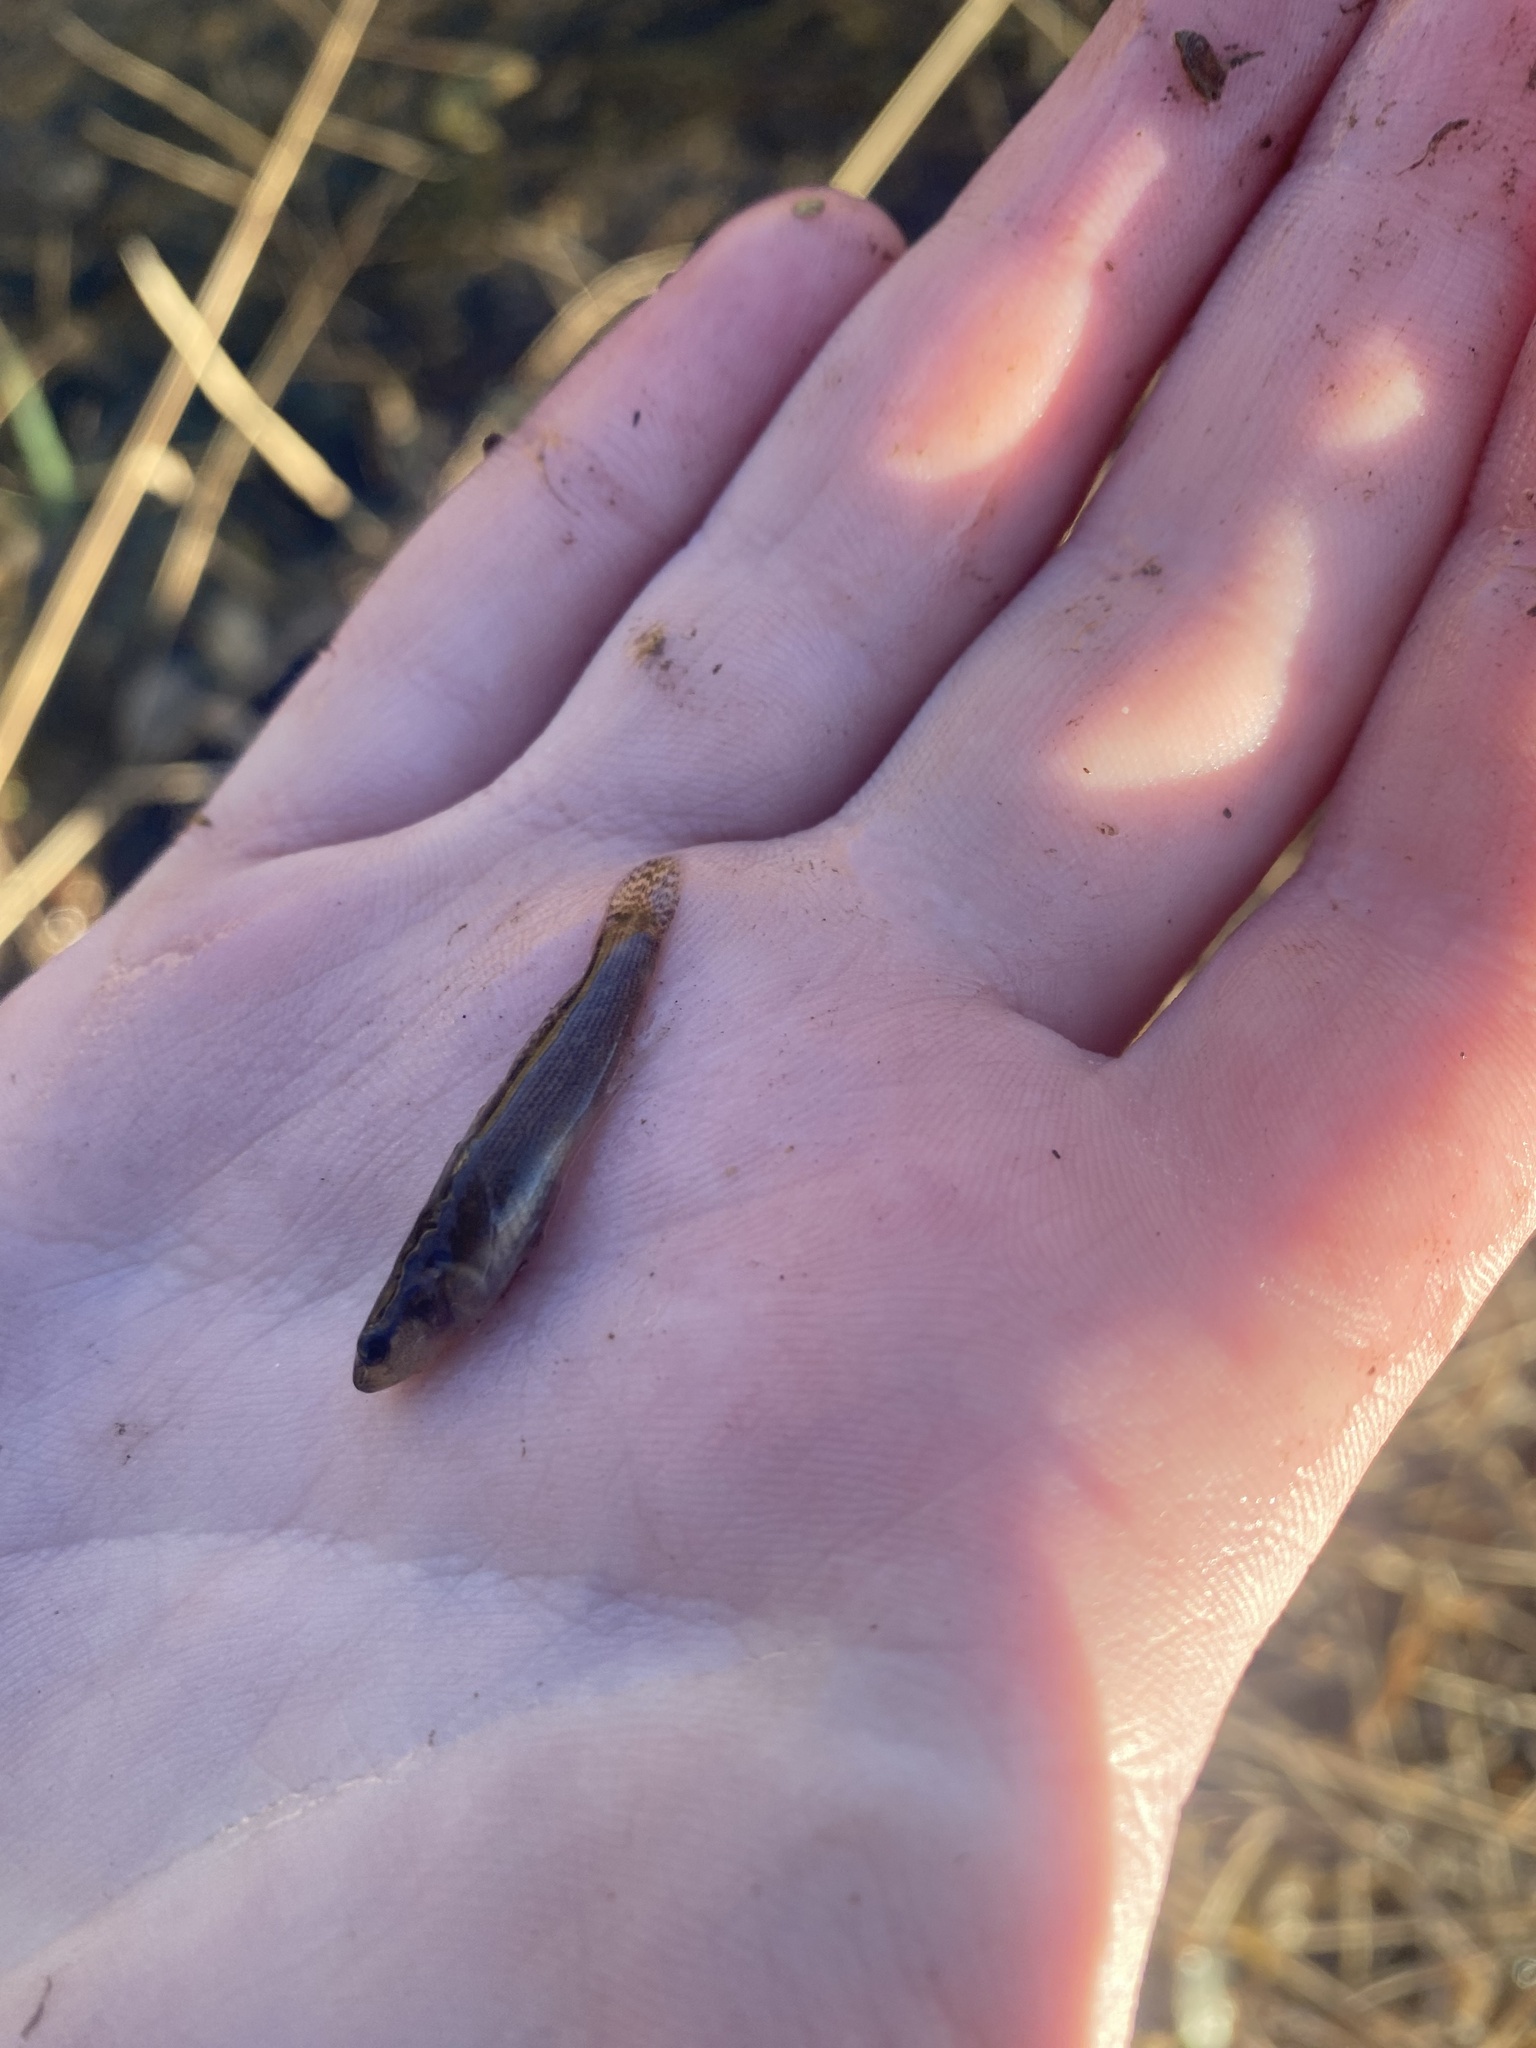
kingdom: Animalia
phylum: Chordata
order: Perciformes
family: Percidae
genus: Etheostoma
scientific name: Etheostoma flabellare
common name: Fantail darter
